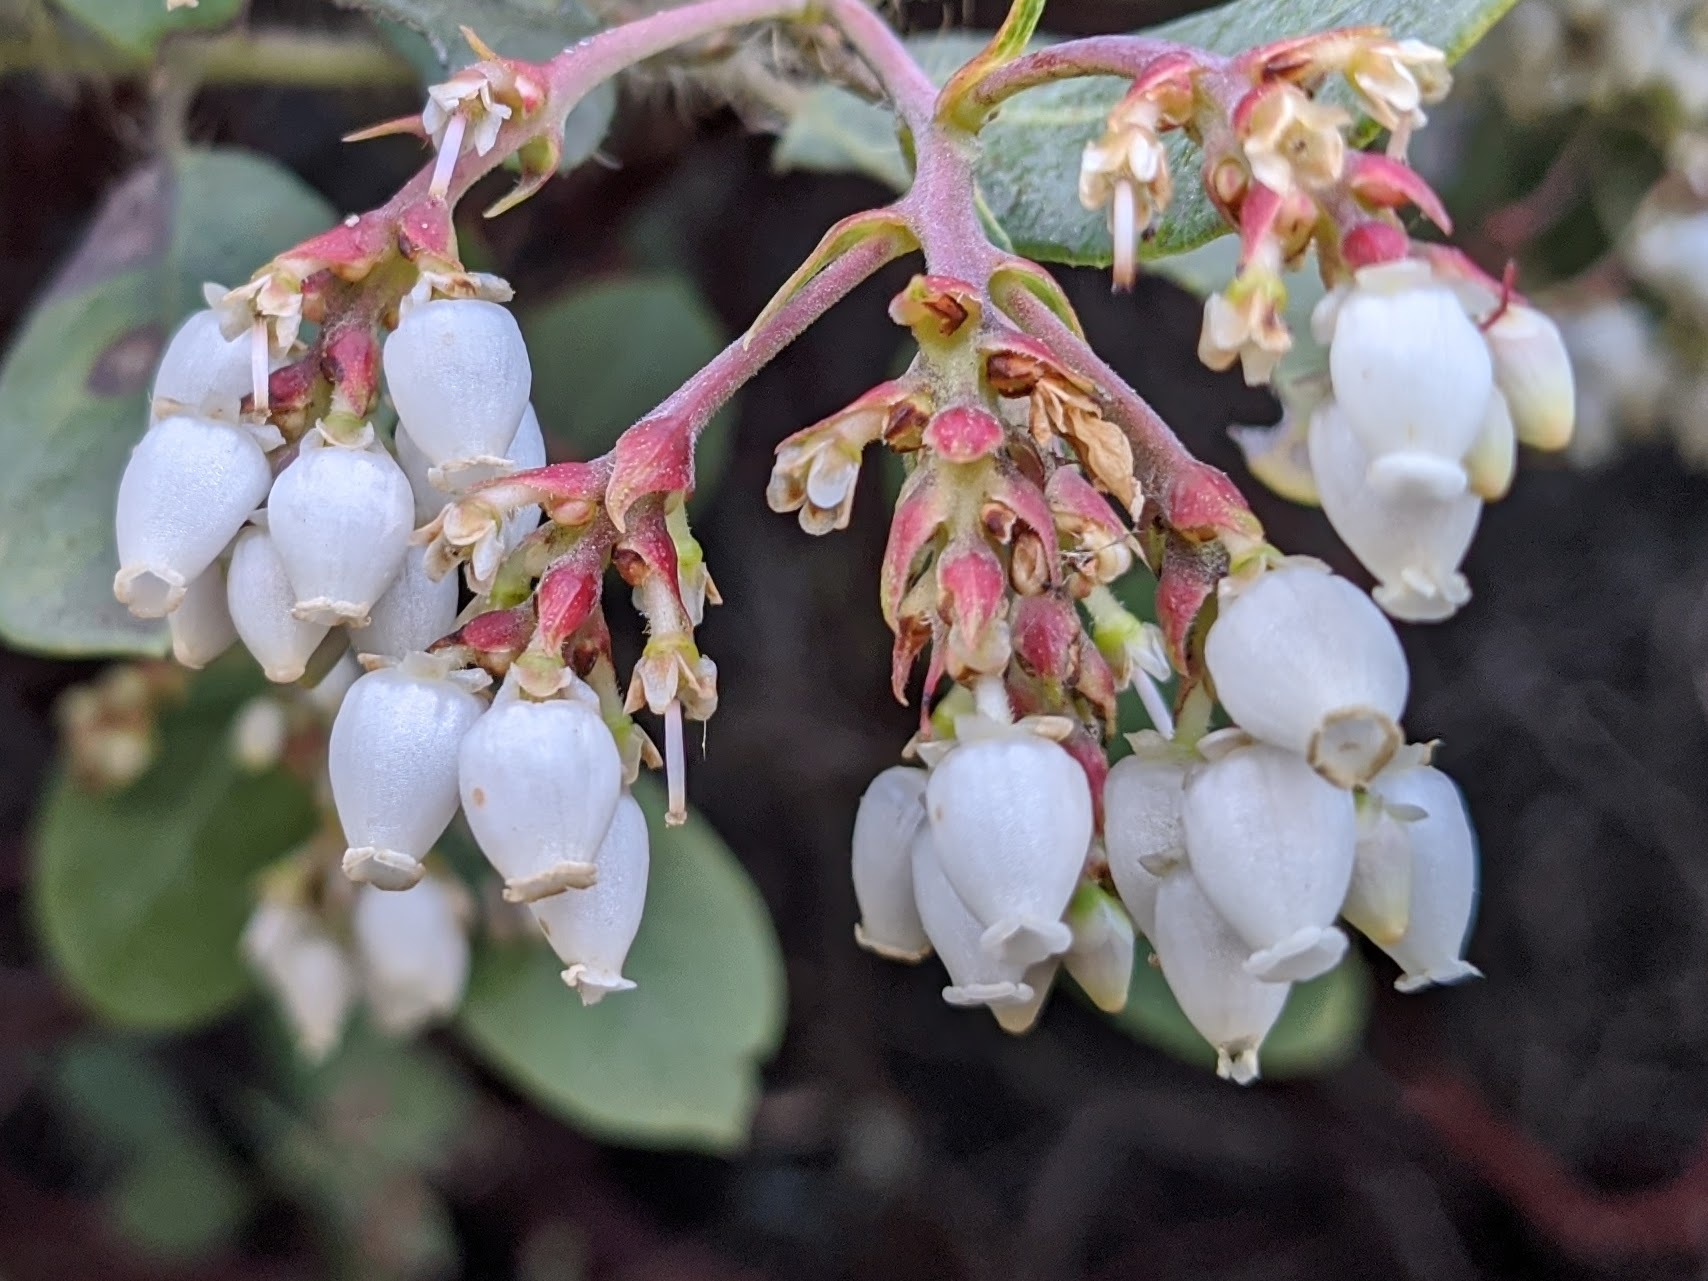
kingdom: Plantae
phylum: Tracheophyta
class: Magnoliopsida
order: Ericales
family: Ericaceae
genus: Arctostaphylos
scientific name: Arctostaphylos crustacea
